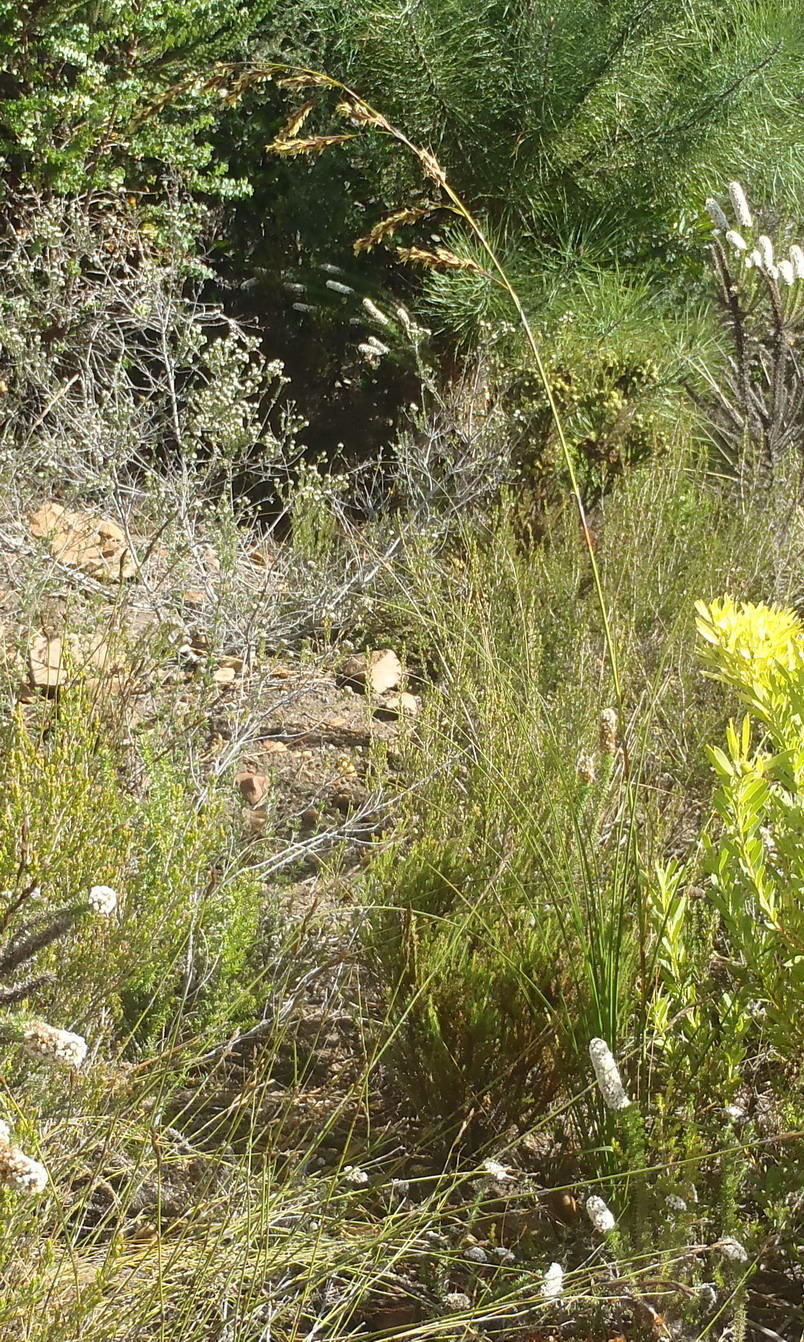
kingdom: Plantae
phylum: Tracheophyta
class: Liliopsida
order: Poales
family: Cyperaceae
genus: Tetraria
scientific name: Tetraria involucrata
